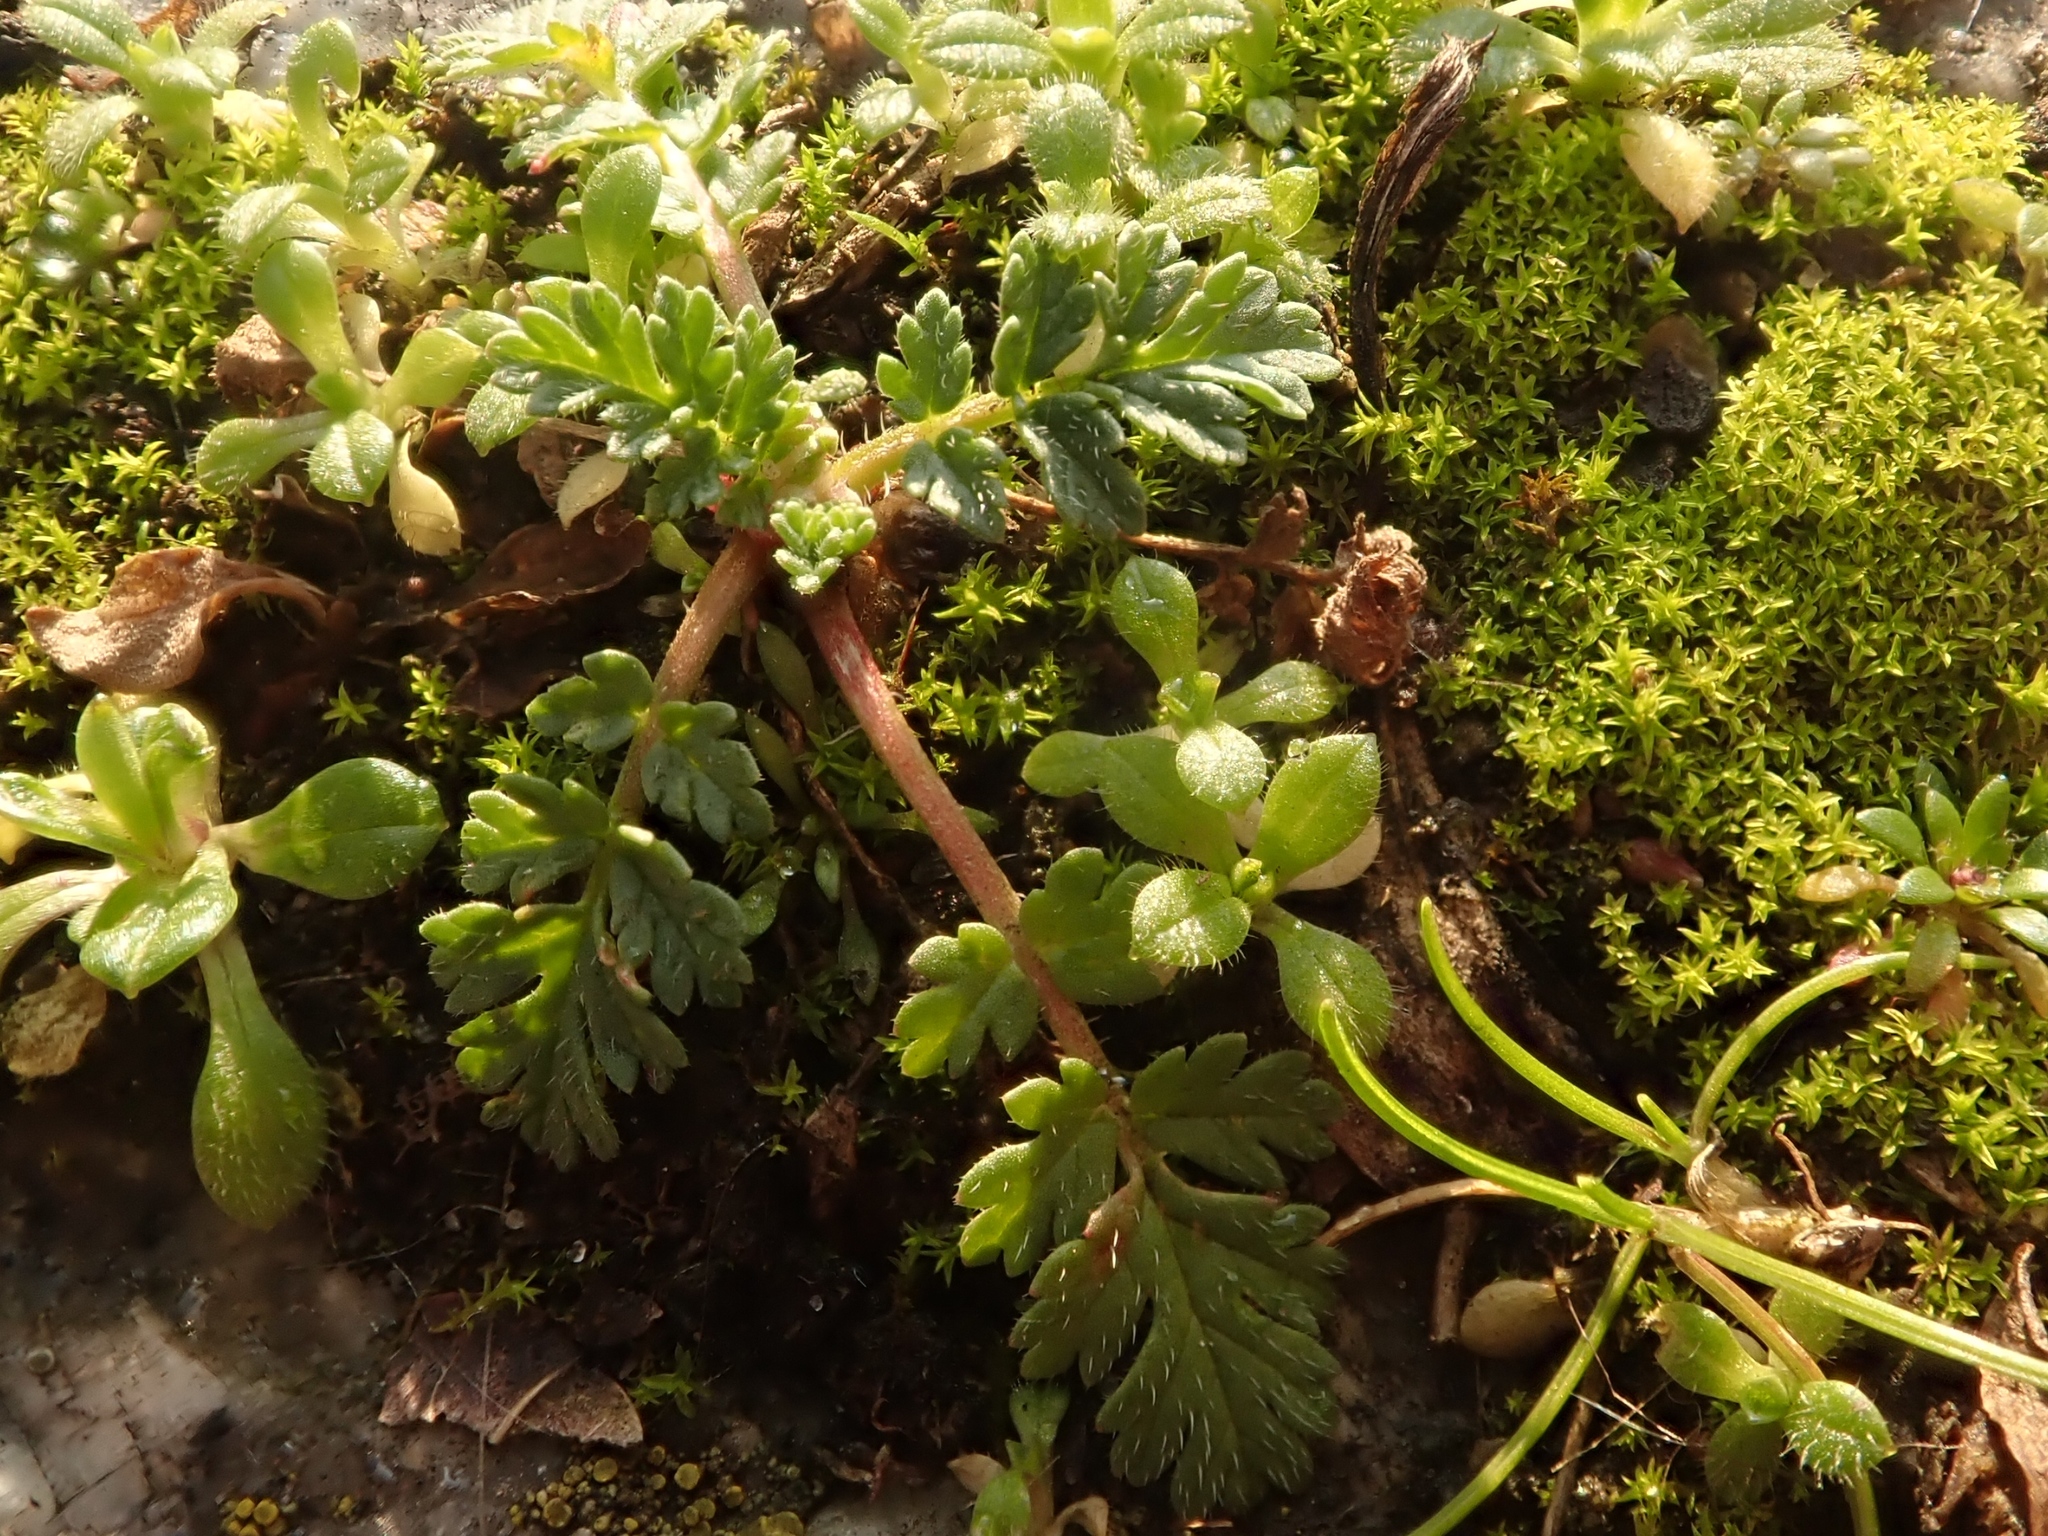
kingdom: Plantae
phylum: Tracheophyta
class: Magnoliopsida
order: Geraniales
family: Geraniaceae
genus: Erodium
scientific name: Erodium cicutarium
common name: Common stork's-bill
